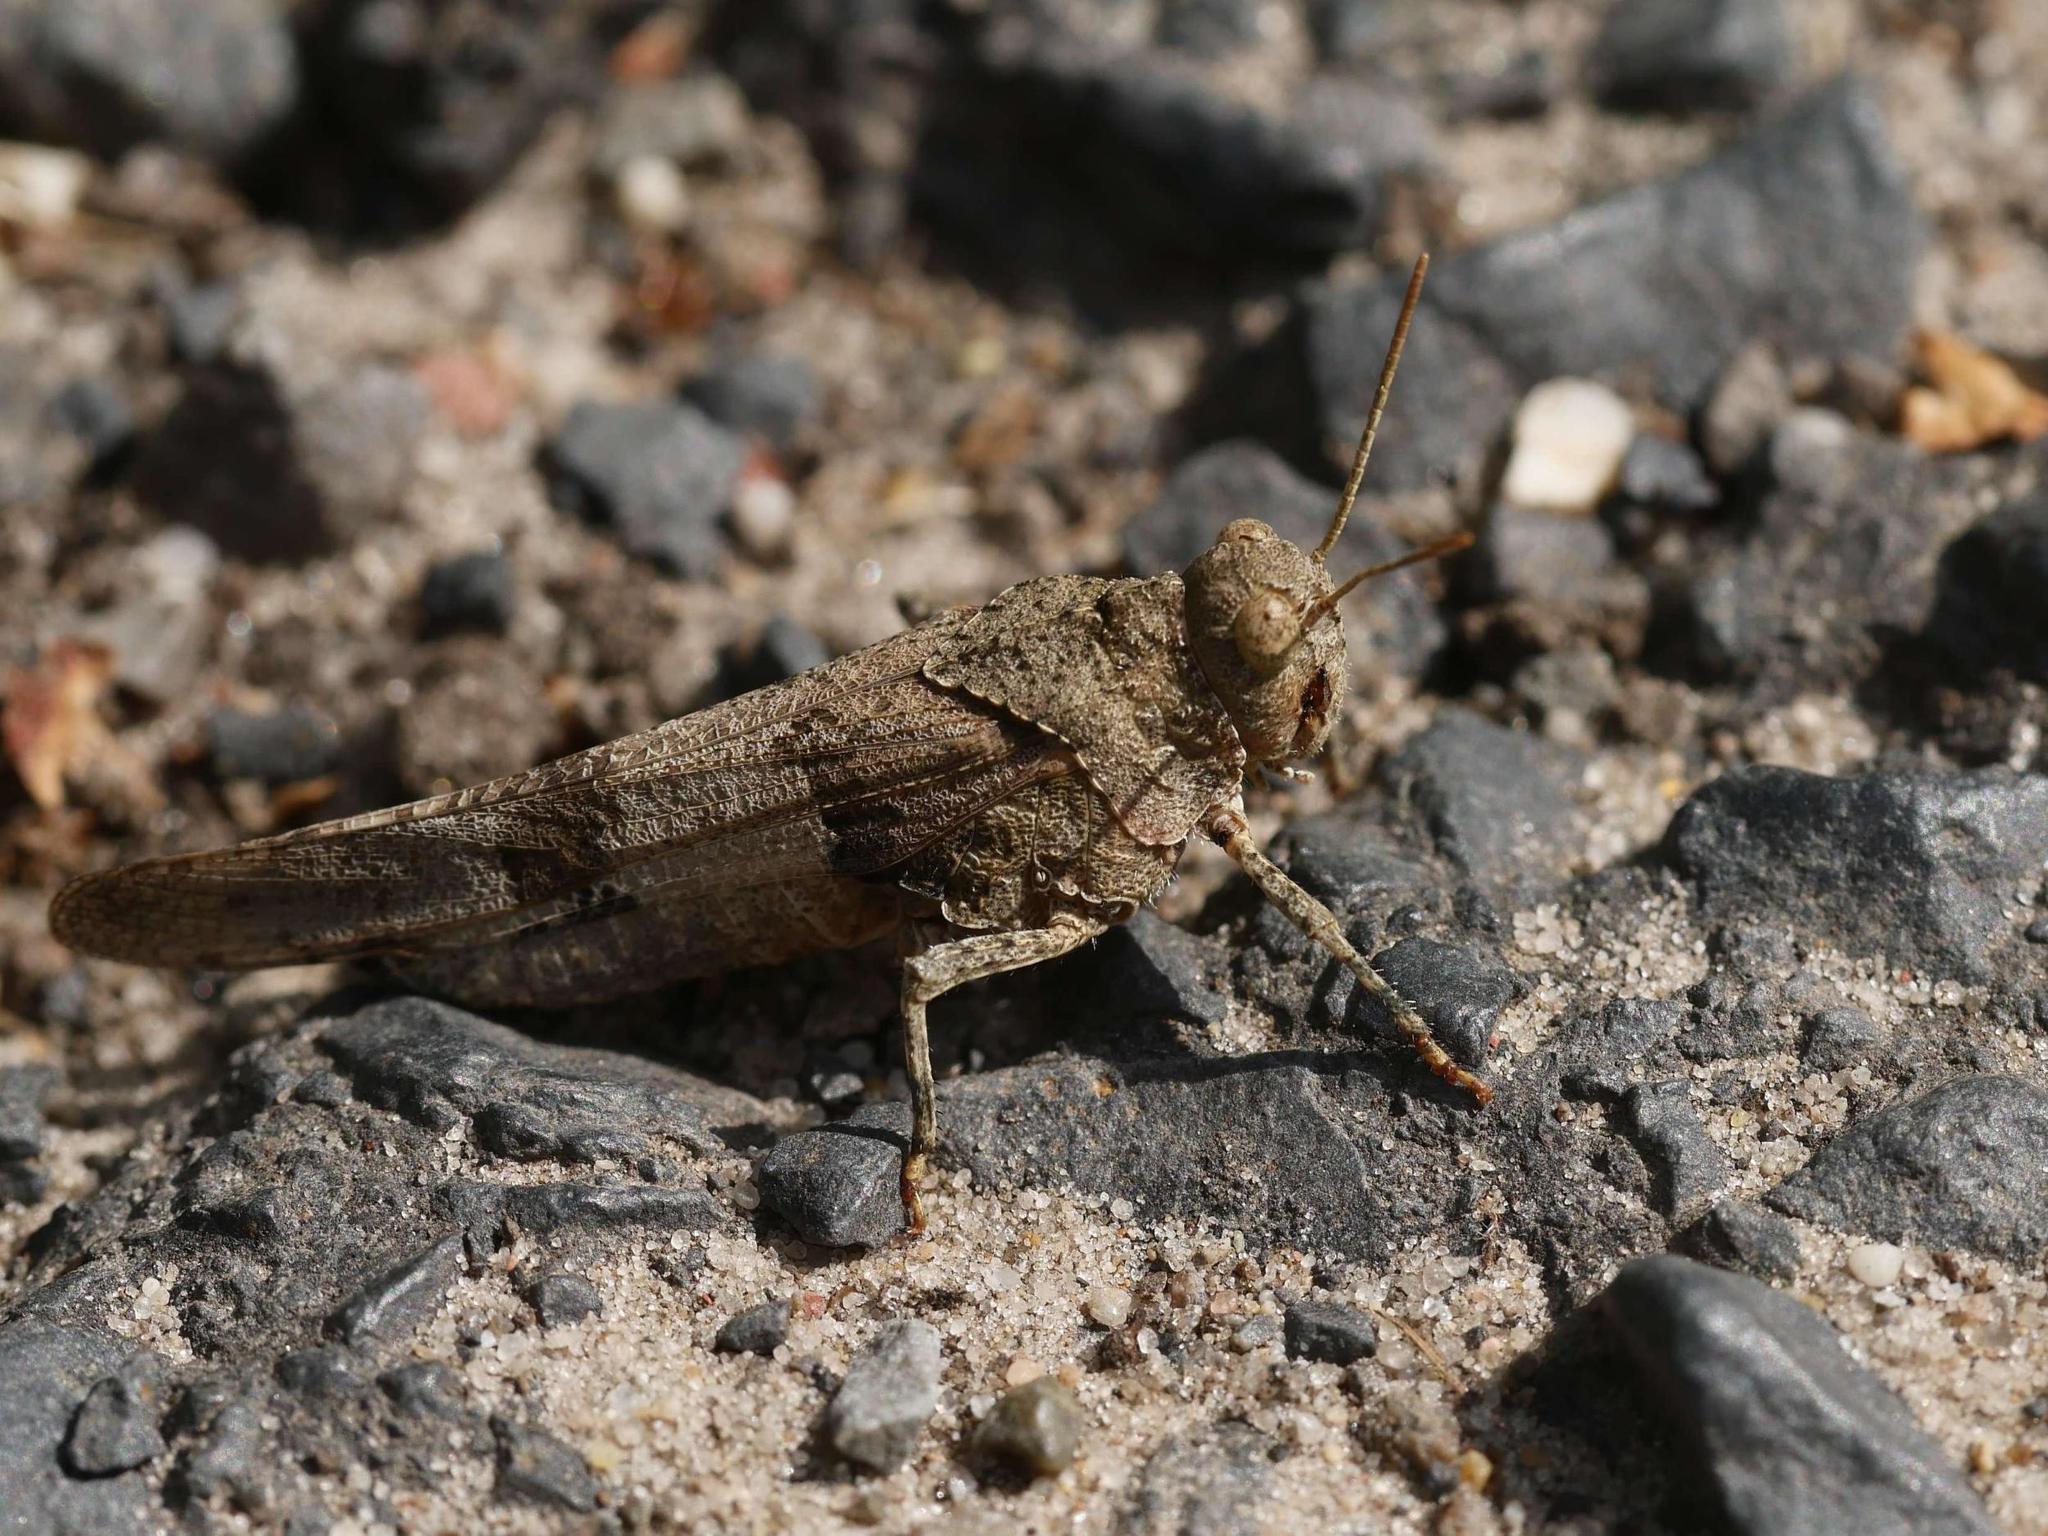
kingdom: Animalia
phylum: Arthropoda
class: Insecta
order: Orthoptera
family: Acrididae
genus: Oedipoda
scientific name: Oedipoda caerulescens
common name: Blue-winged grasshopper
